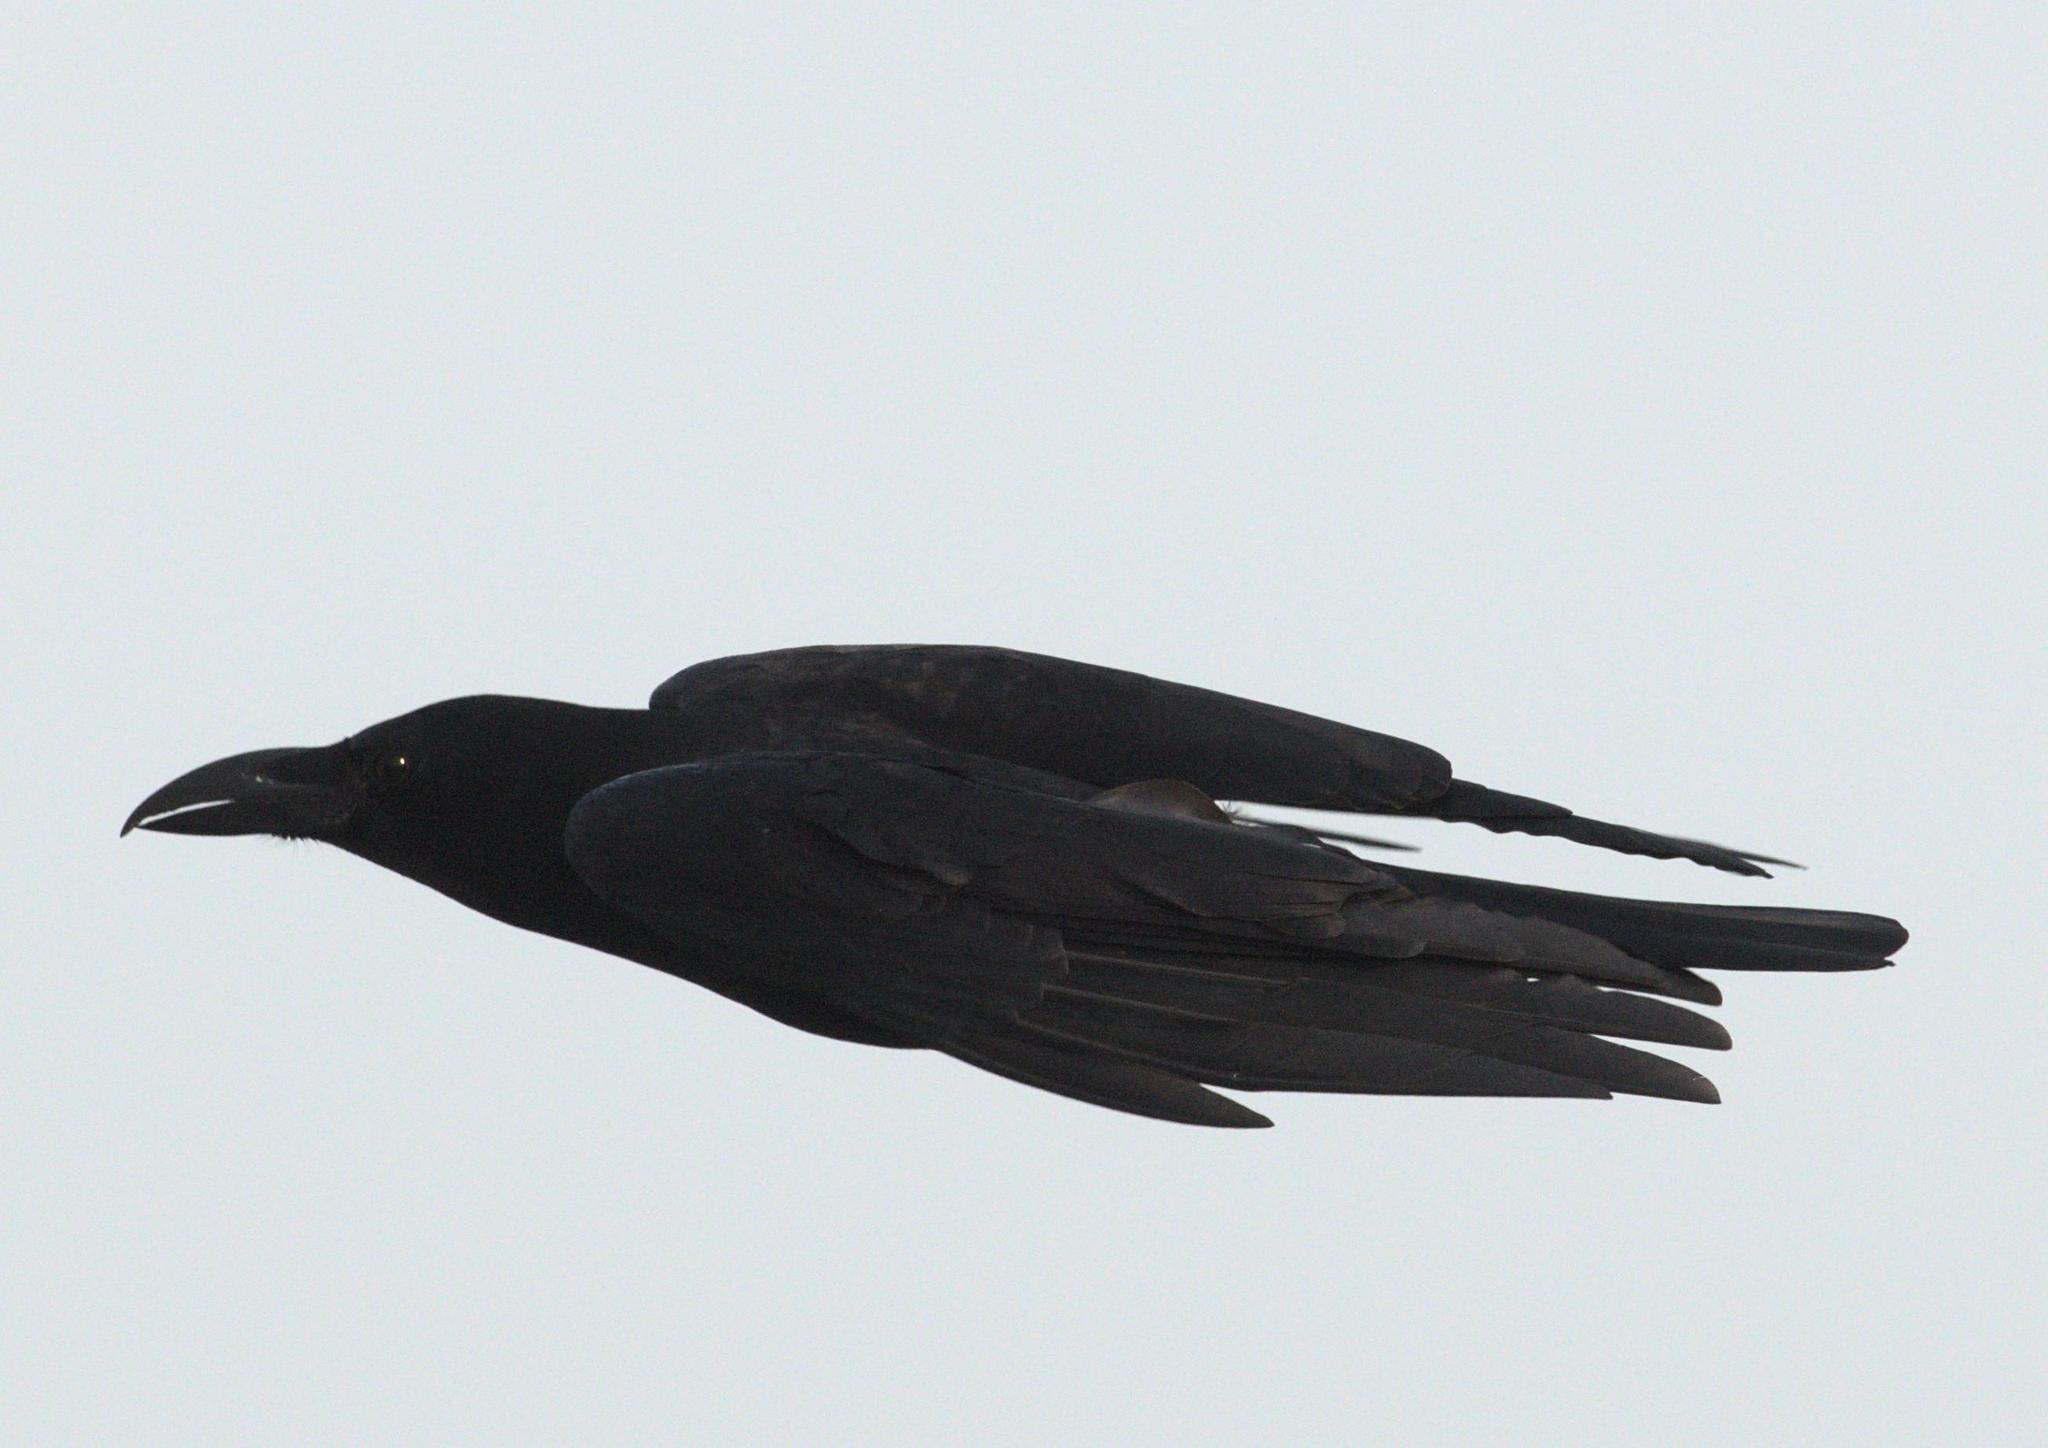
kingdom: Animalia
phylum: Chordata
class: Aves
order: Passeriformes
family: Corvidae
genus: Corvus
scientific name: Corvus macrorhynchos
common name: Large-billed crow
